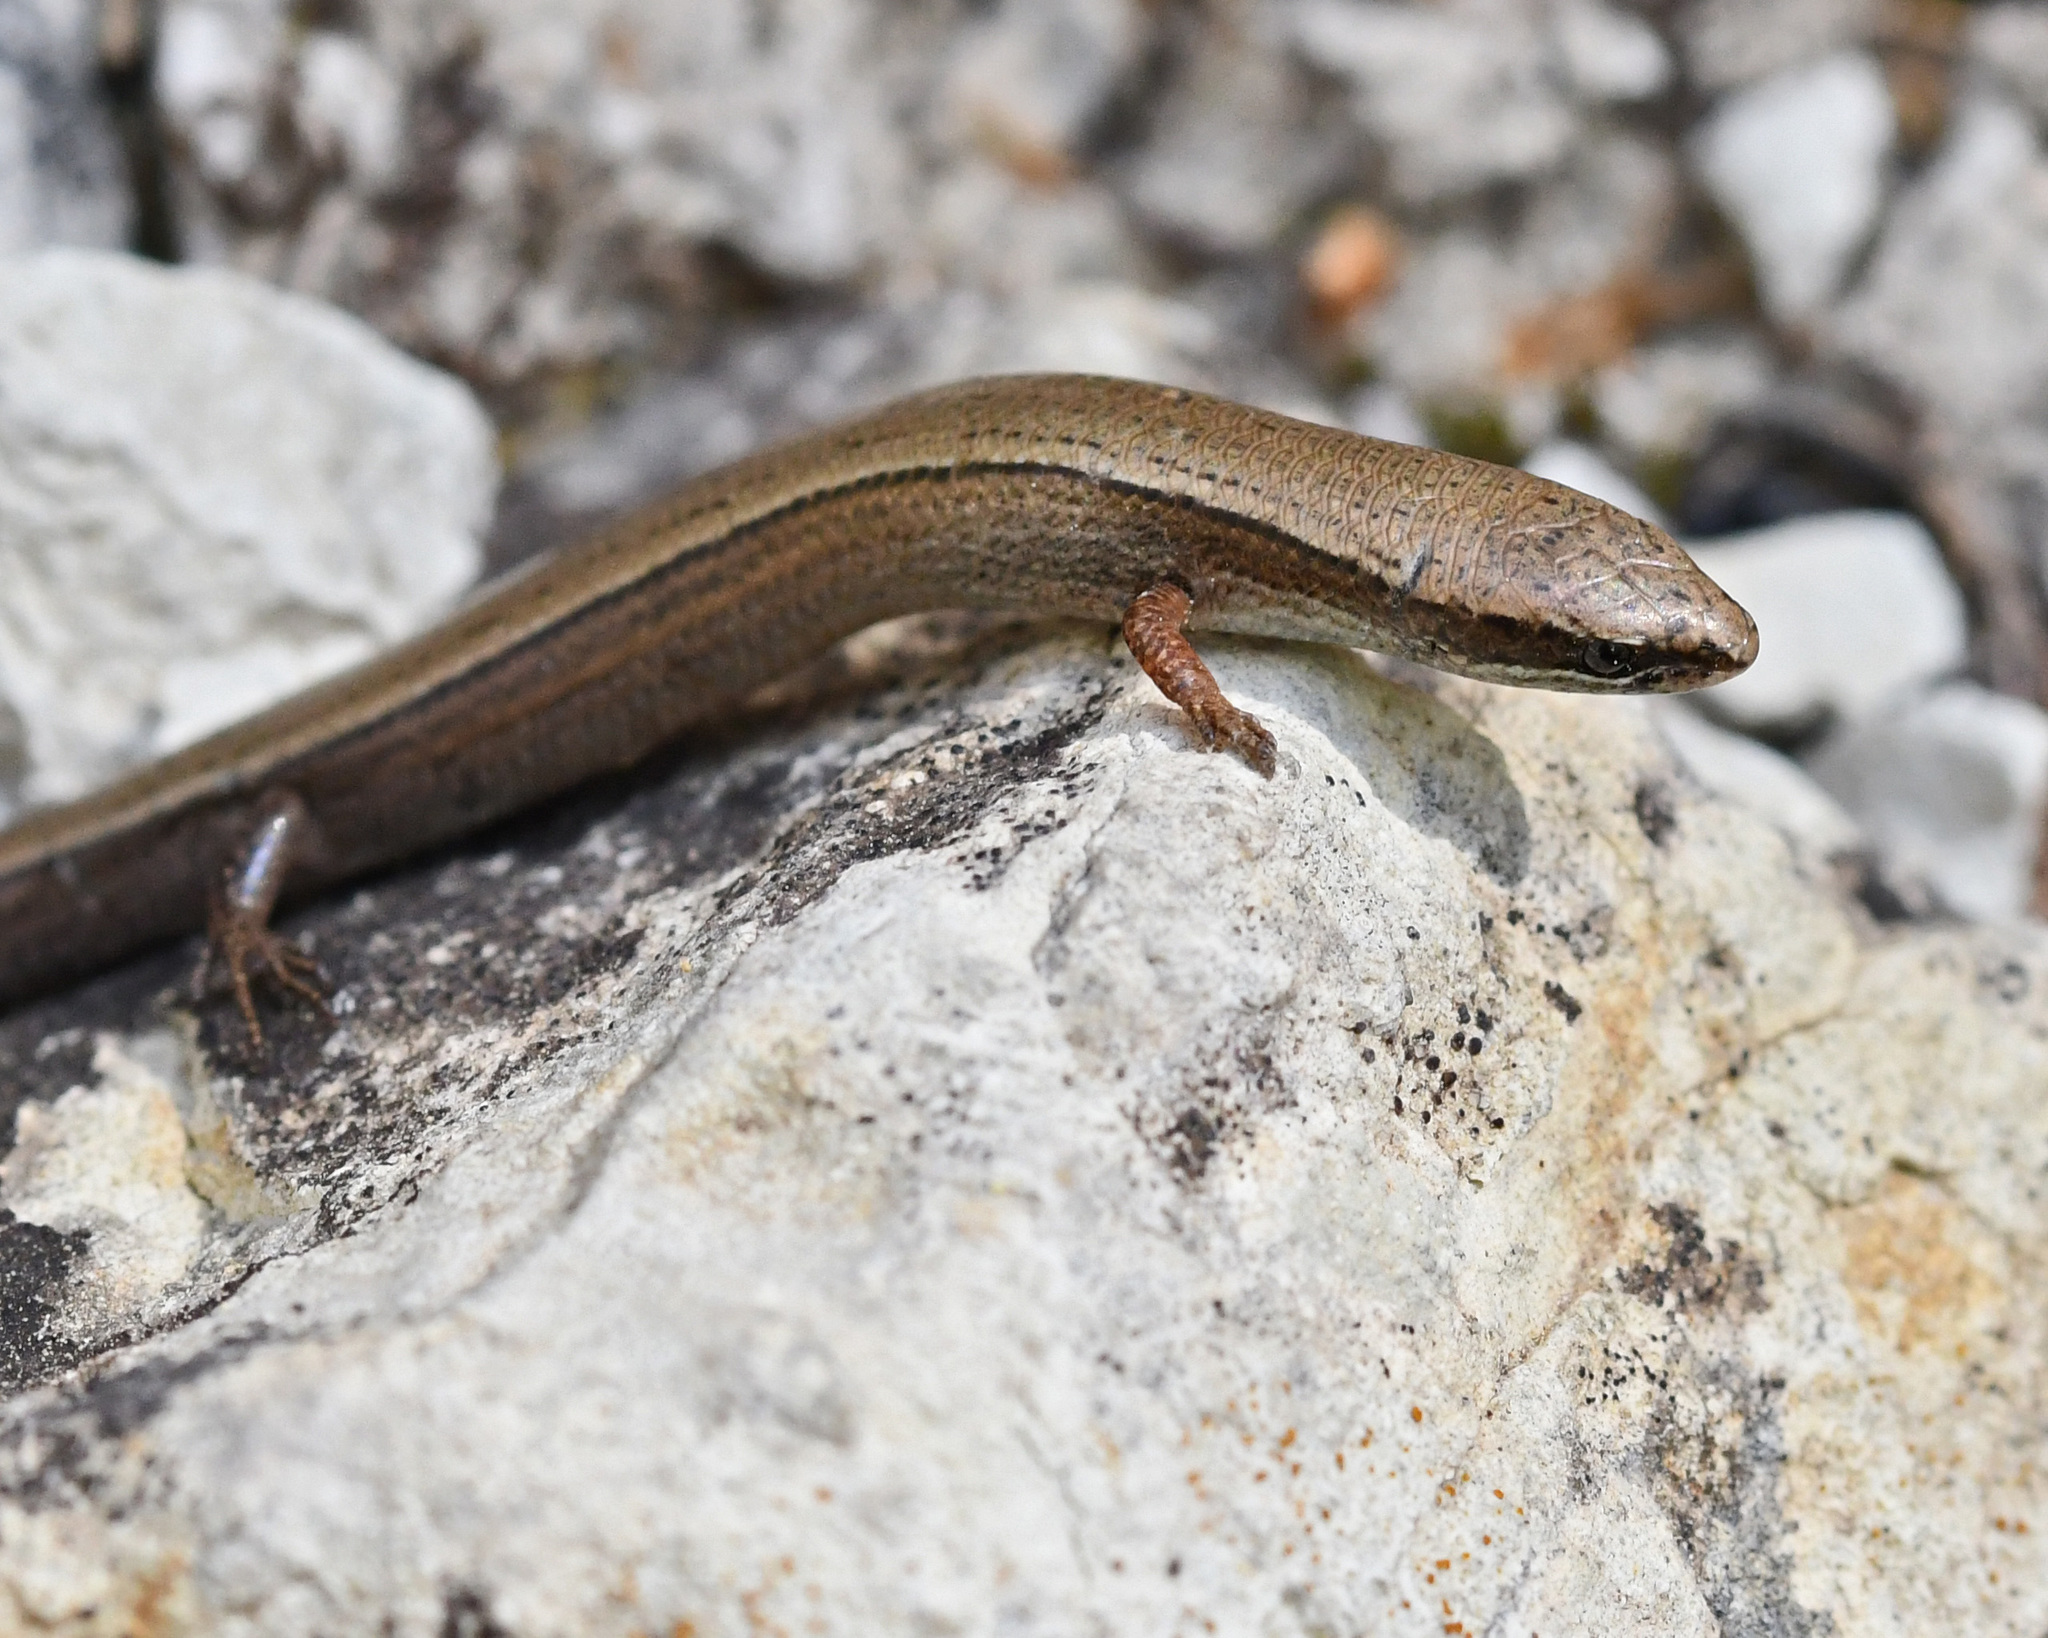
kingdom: Animalia
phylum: Chordata
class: Squamata
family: Scincidae
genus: Ablepharus
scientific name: Ablepharus budaki
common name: Budak’s snake-eyed skink
